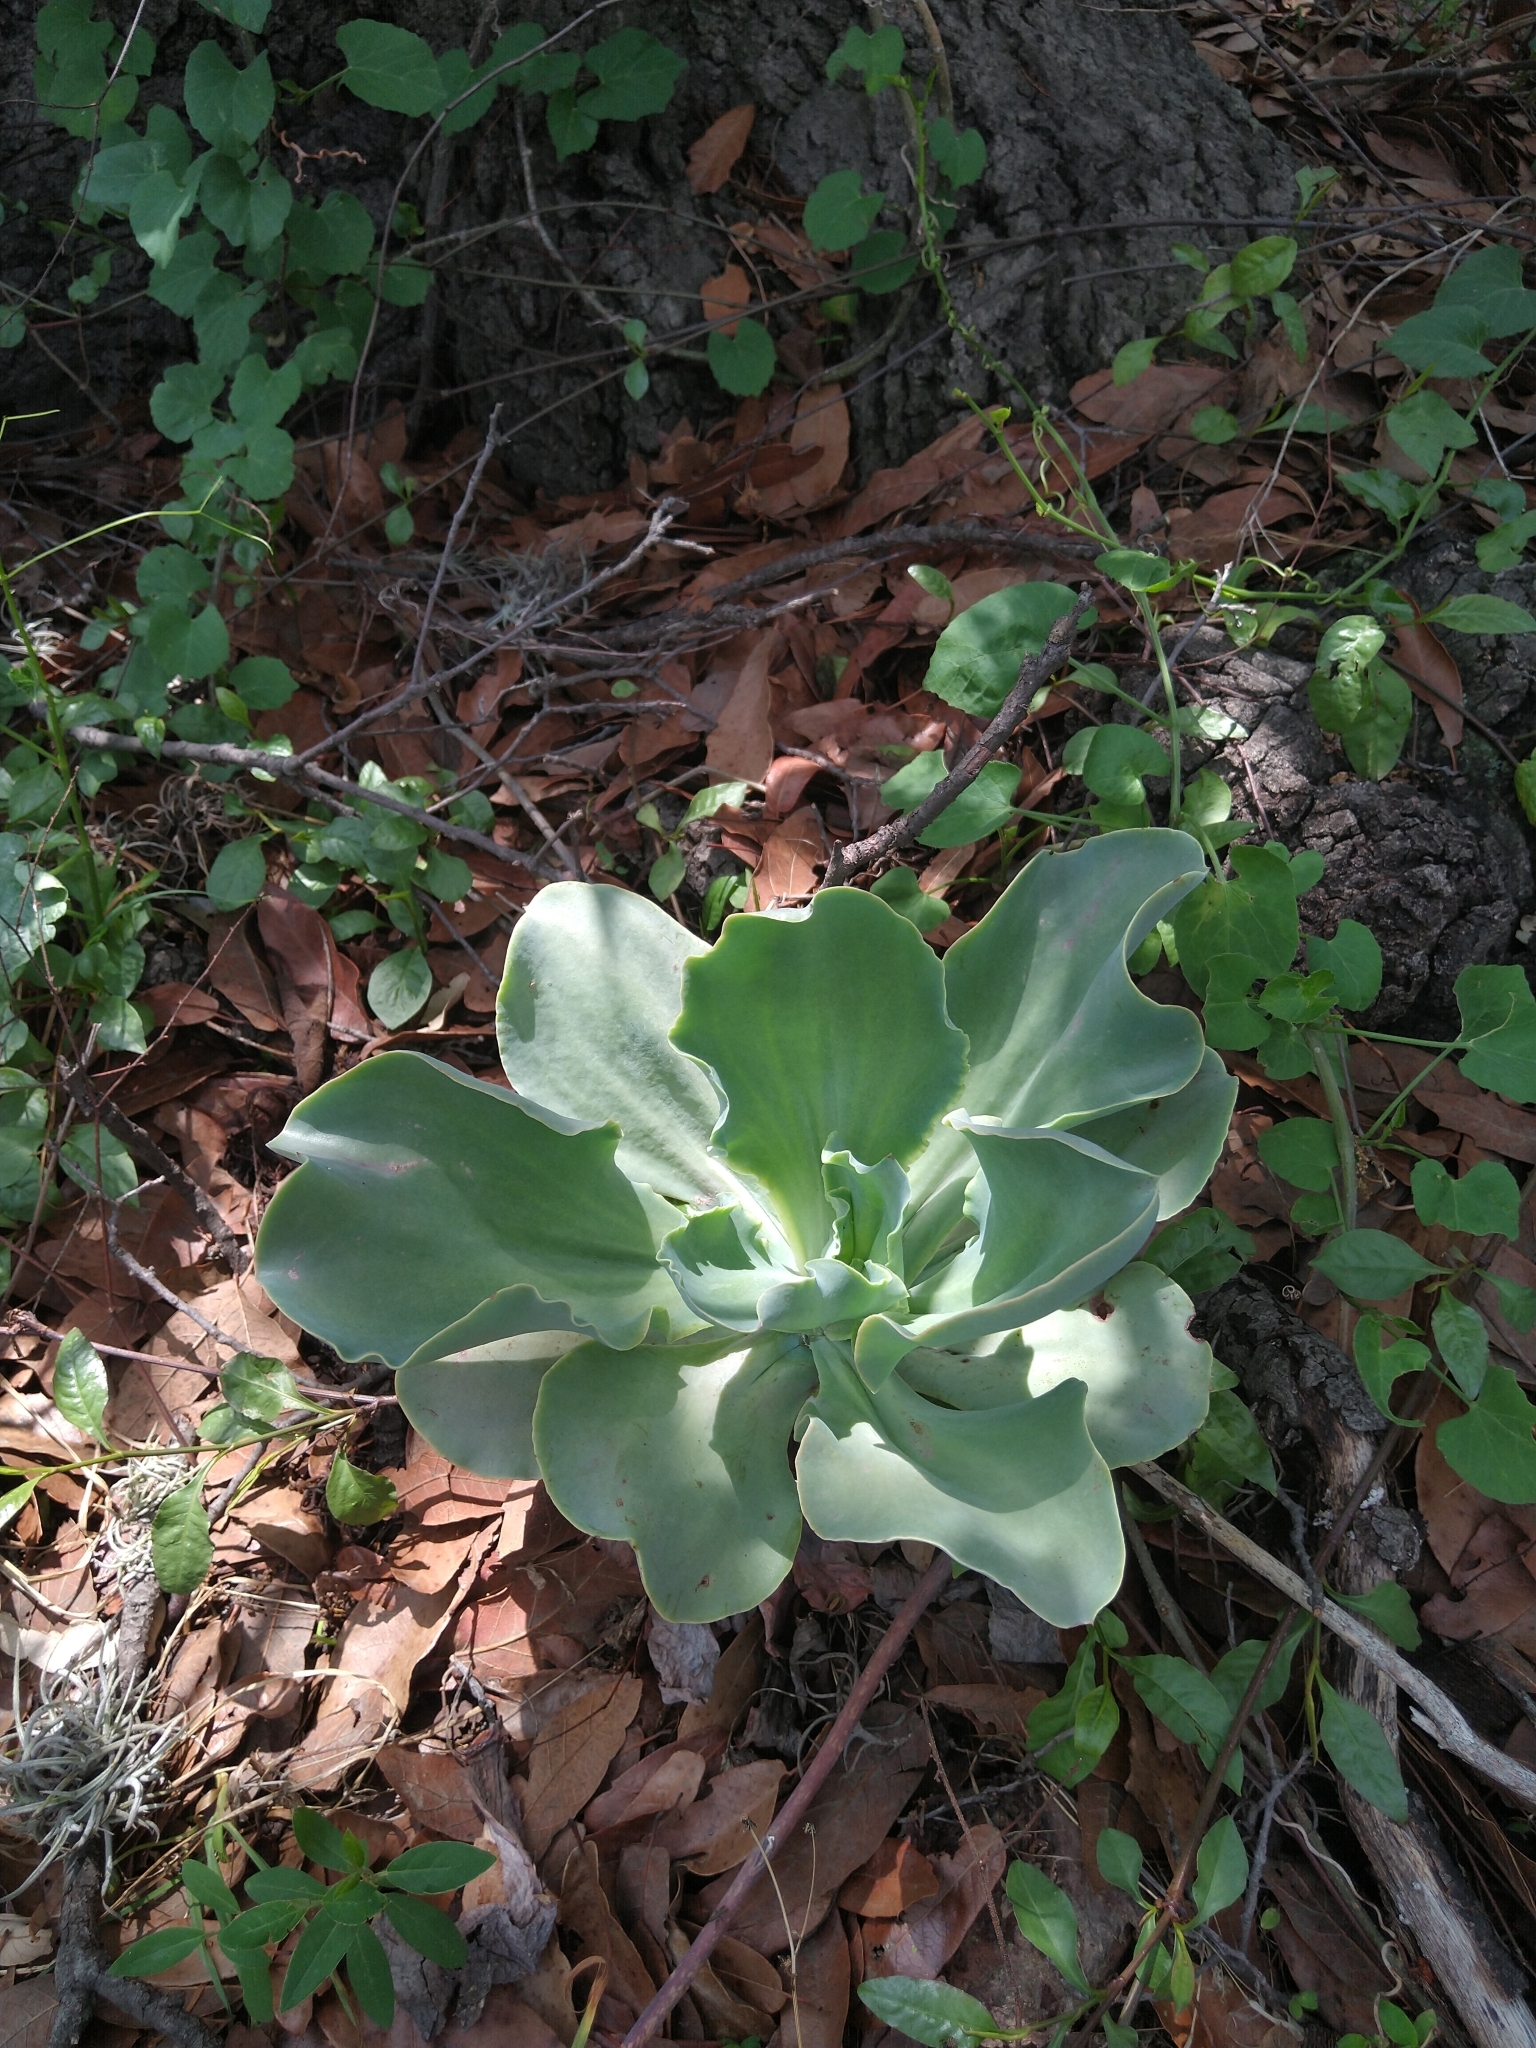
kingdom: Plantae
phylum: Tracheophyta
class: Magnoliopsida
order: Saxifragales
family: Crassulaceae
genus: Echeveria
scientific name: Echeveria gibbiflora
